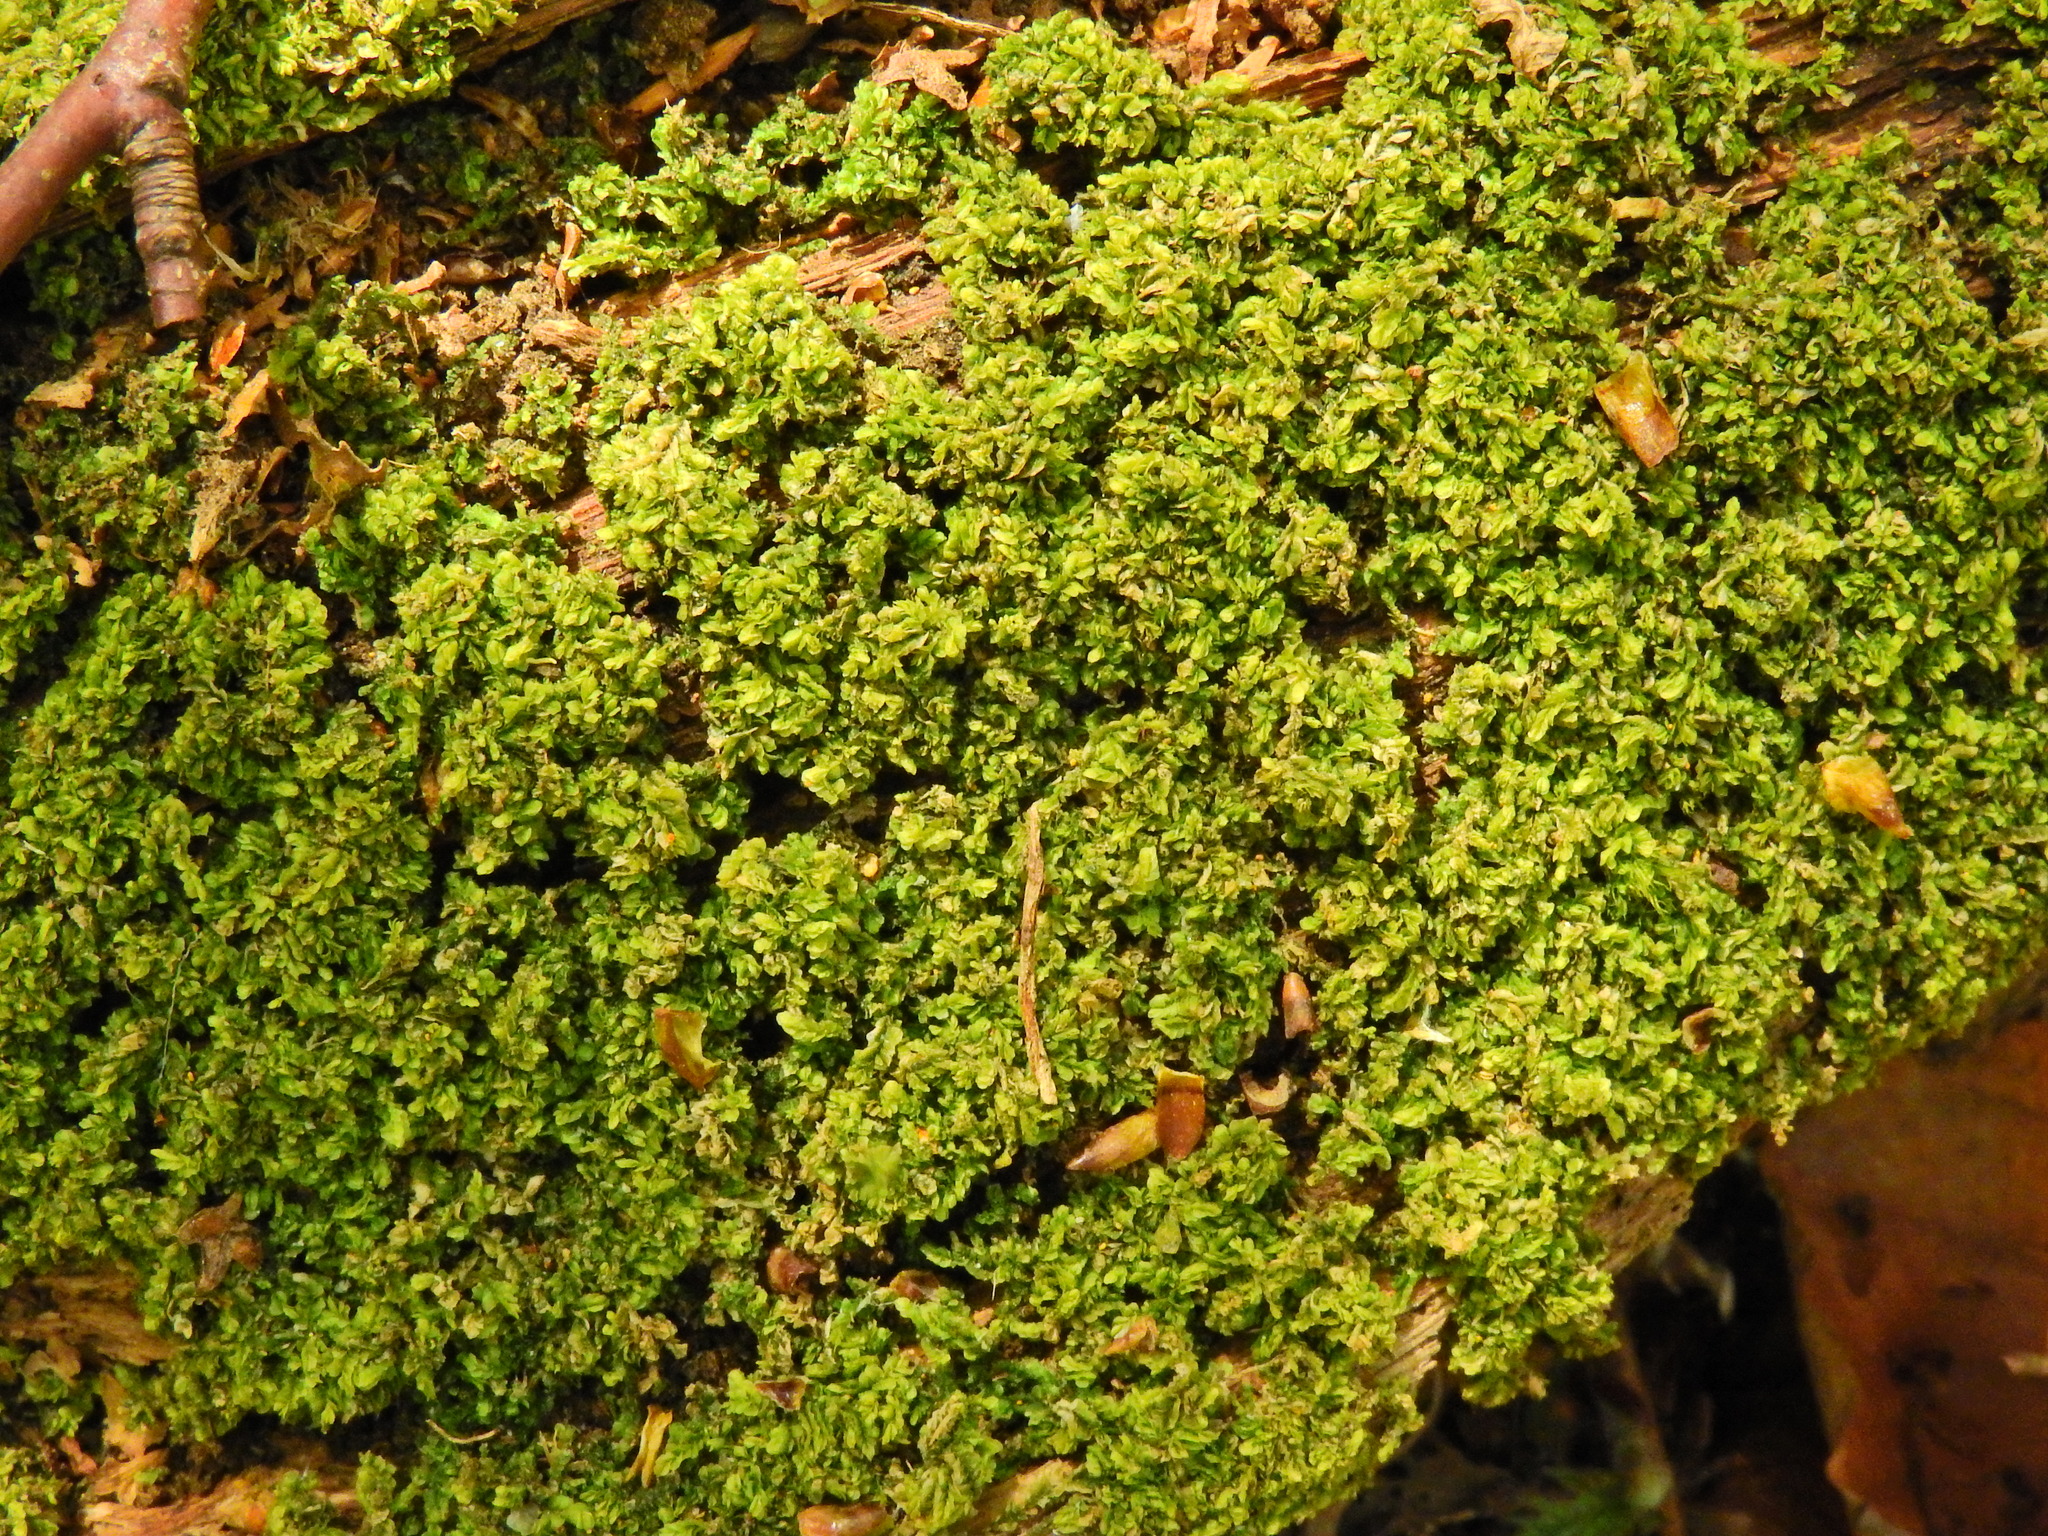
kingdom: Plantae
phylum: Marchantiophyta
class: Jungermanniopsida
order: Jungermanniales
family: Lophocoleaceae
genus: Lophocolea
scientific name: Lophocolea heterophylla
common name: Variable-leaved crestwort
